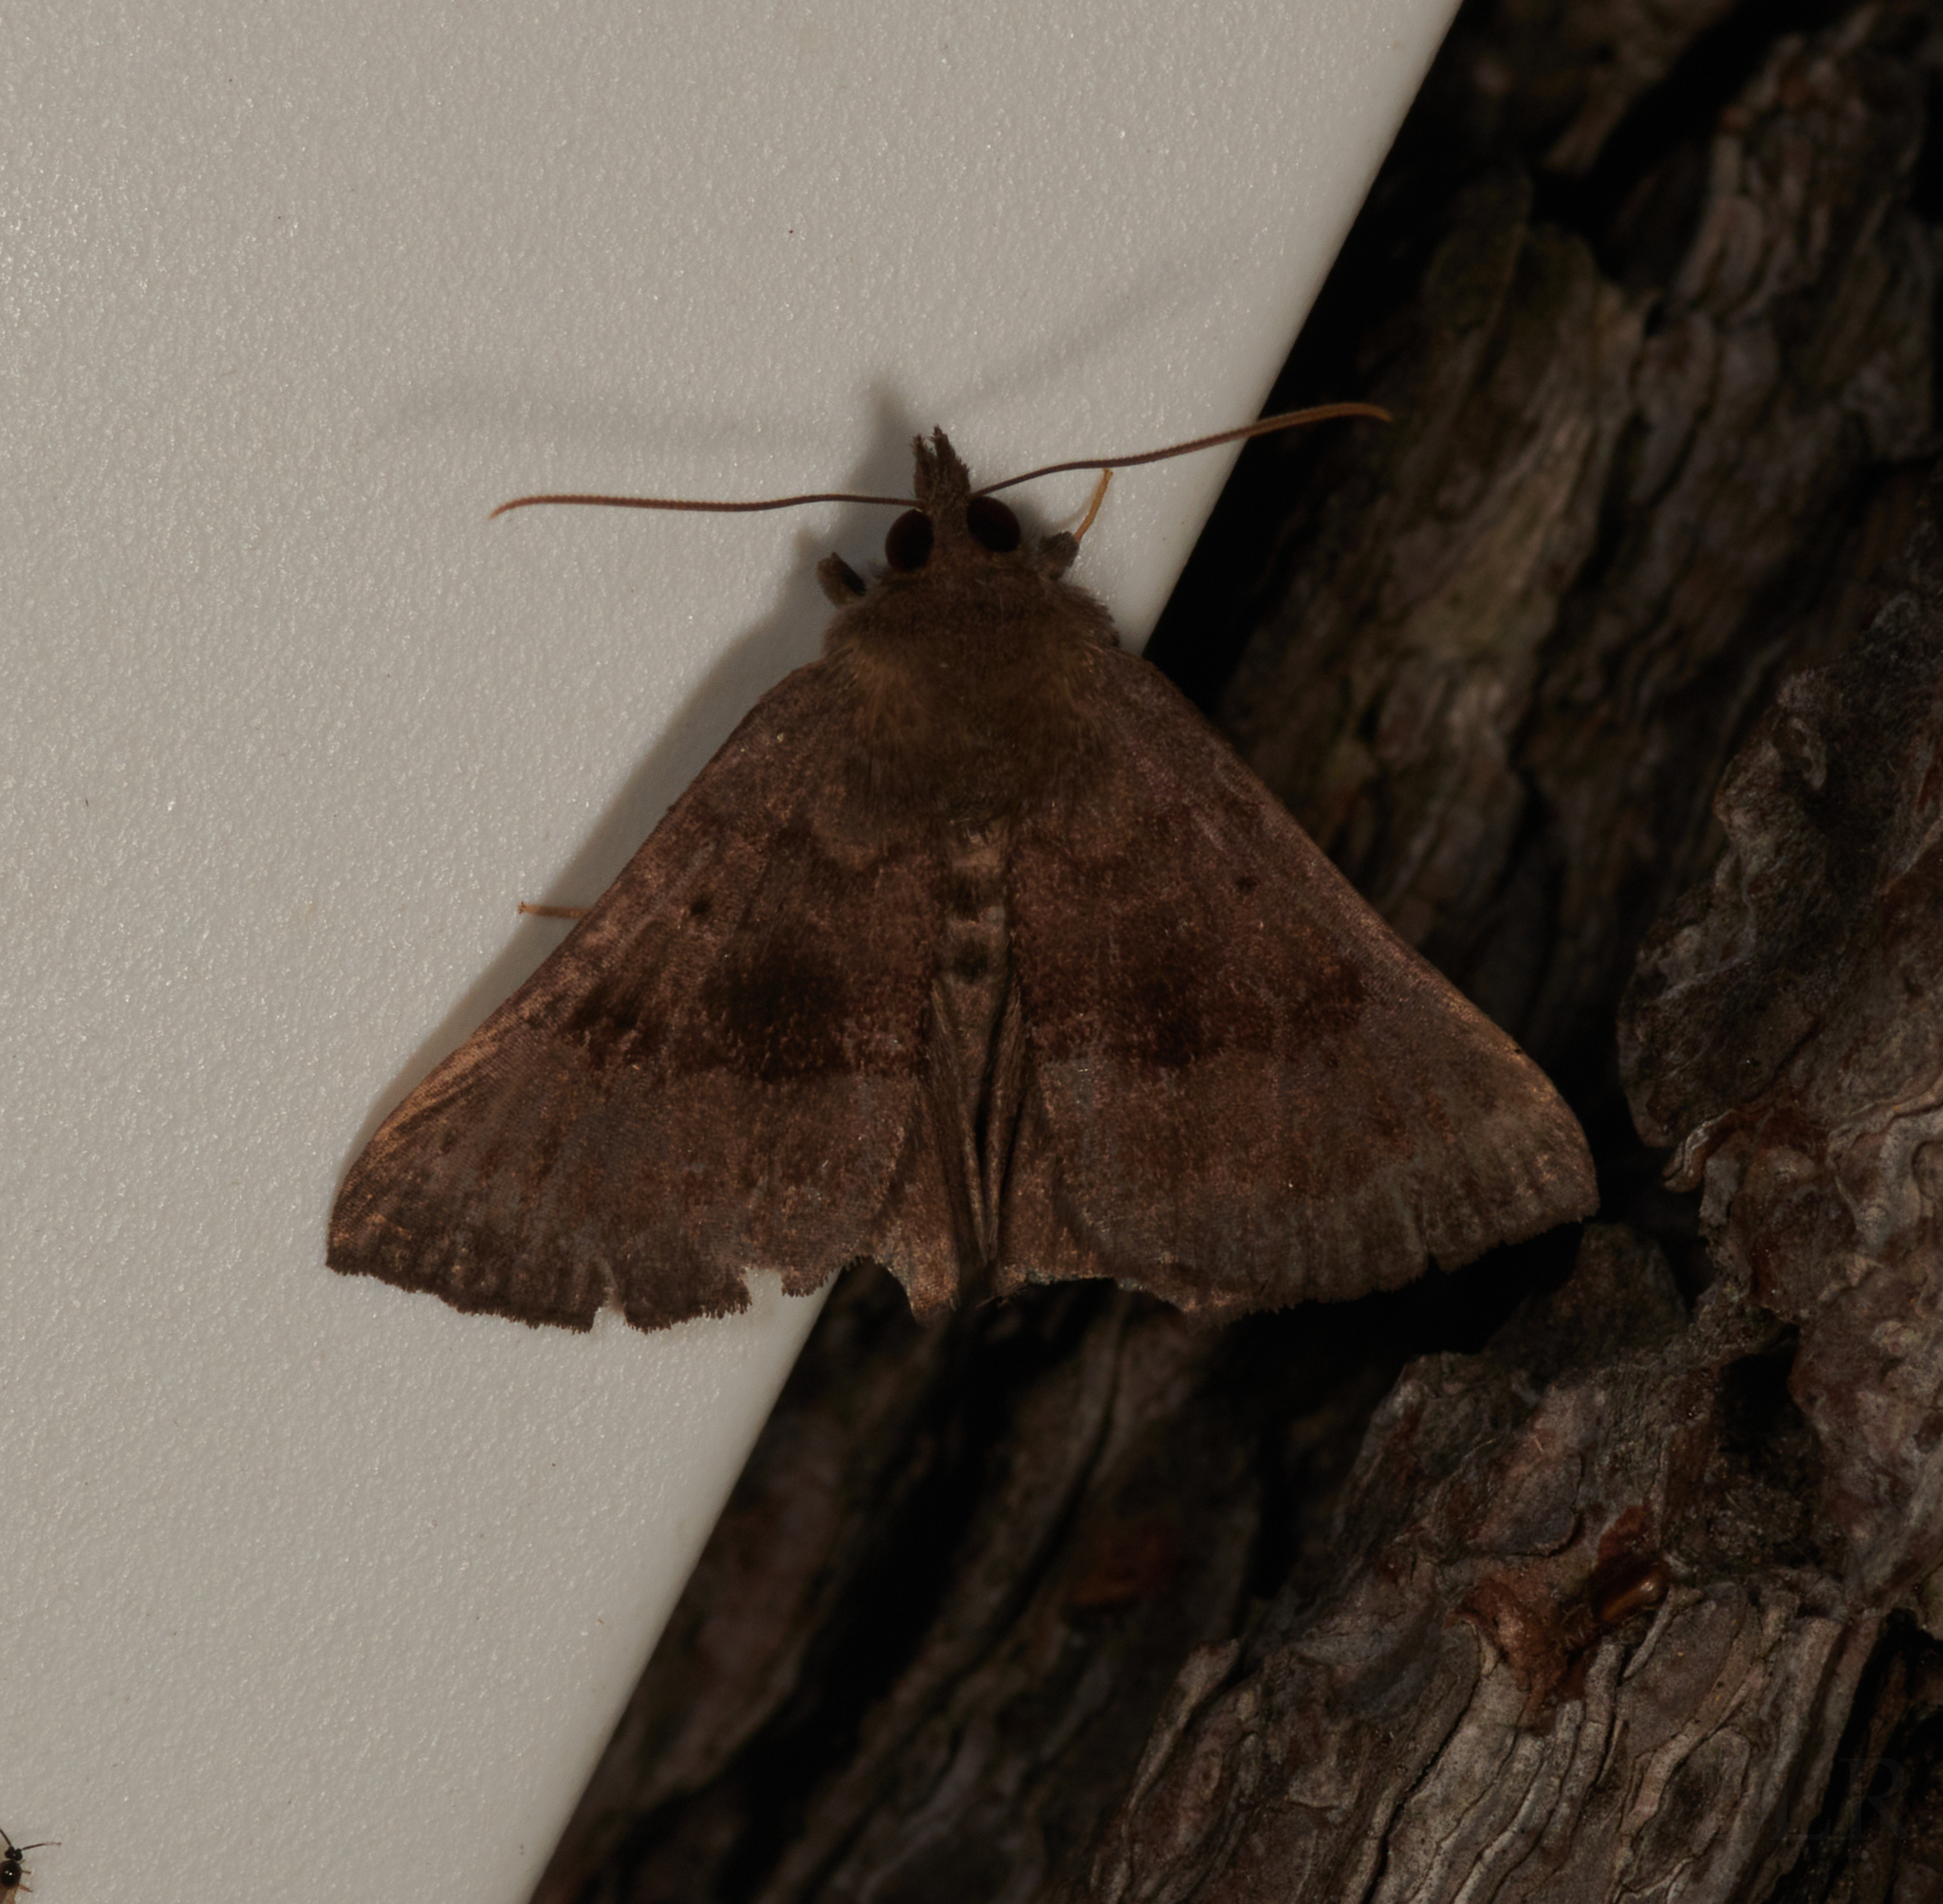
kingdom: Animalia
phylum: Arthropoda
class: Insecta
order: Lepidoptera
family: Erebidae
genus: Hypena
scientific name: Hypena madefactalis
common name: Gray-edged snout
